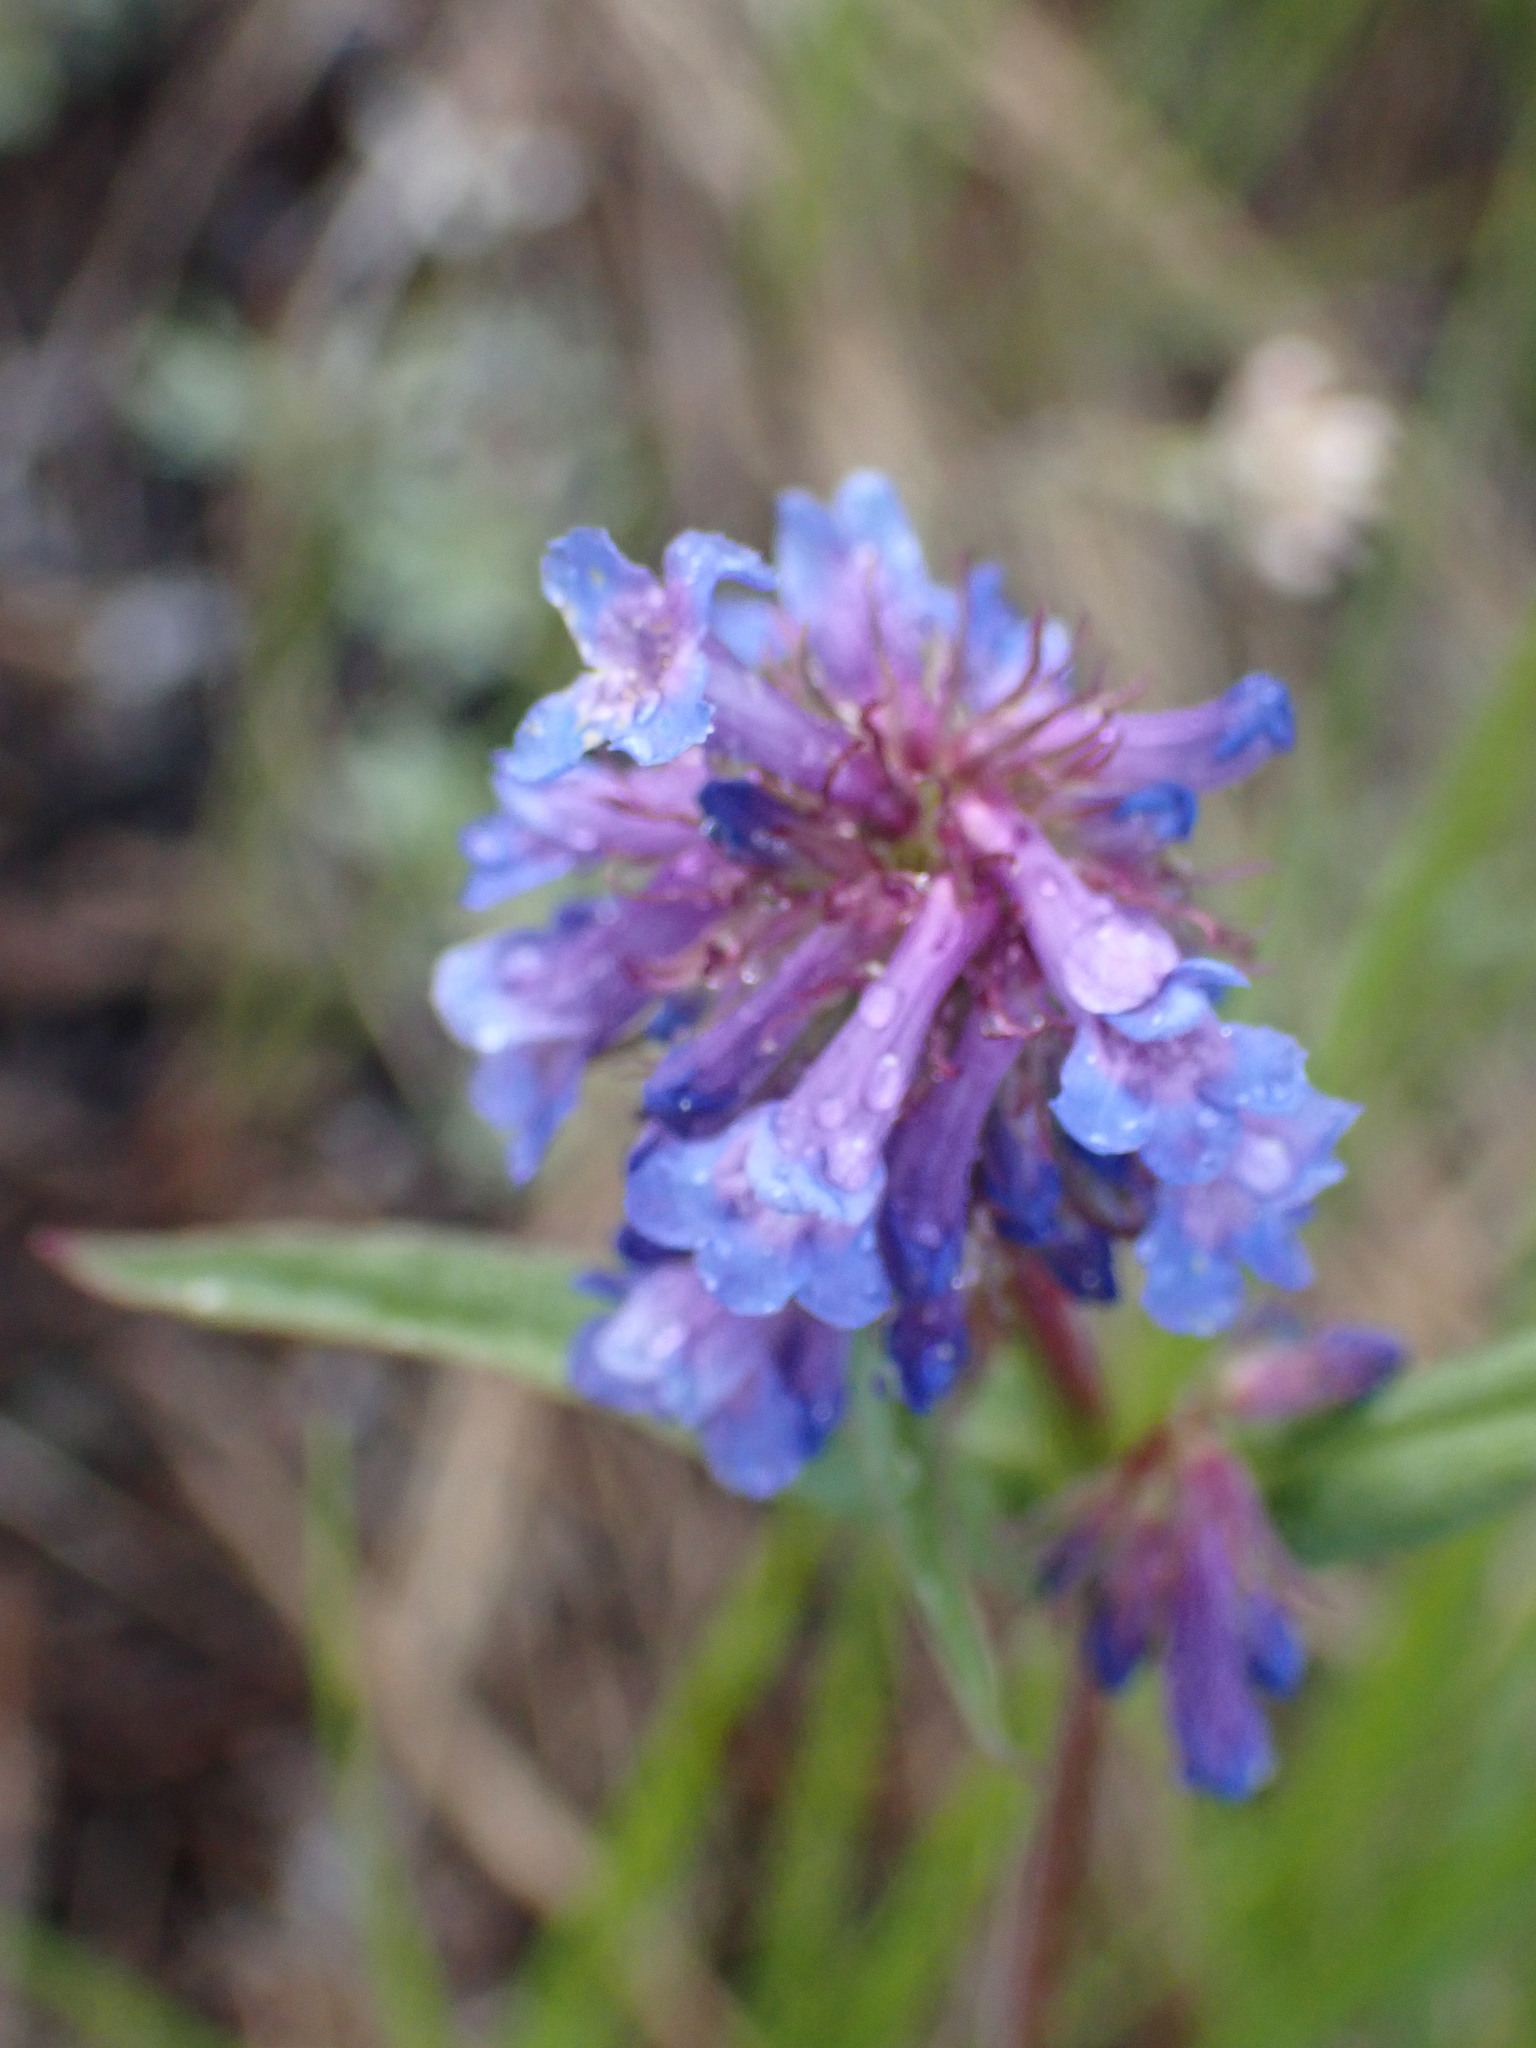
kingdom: Plantae
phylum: Tracheophyta
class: Magnoliopsida
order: Lamiales
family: Plantaginaceae
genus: Penstemon
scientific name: Penstemon procerus
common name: Small-flower penstemon
